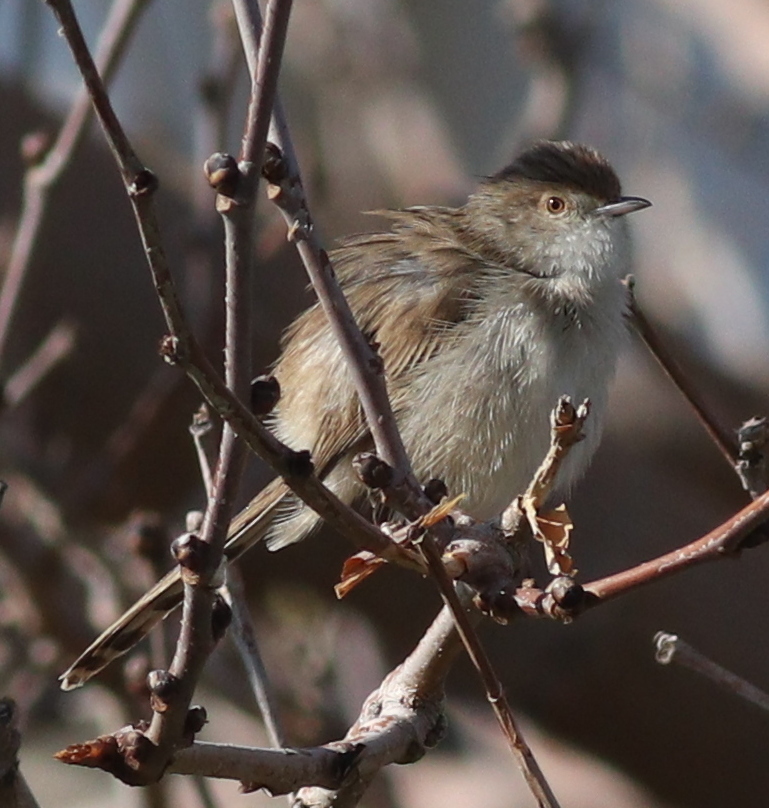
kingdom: Animalia
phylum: Chordata
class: Aves
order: Passeriformes
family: Cisticolidae
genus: Prinia
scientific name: Prinia gracilis
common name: Graceful prinia
